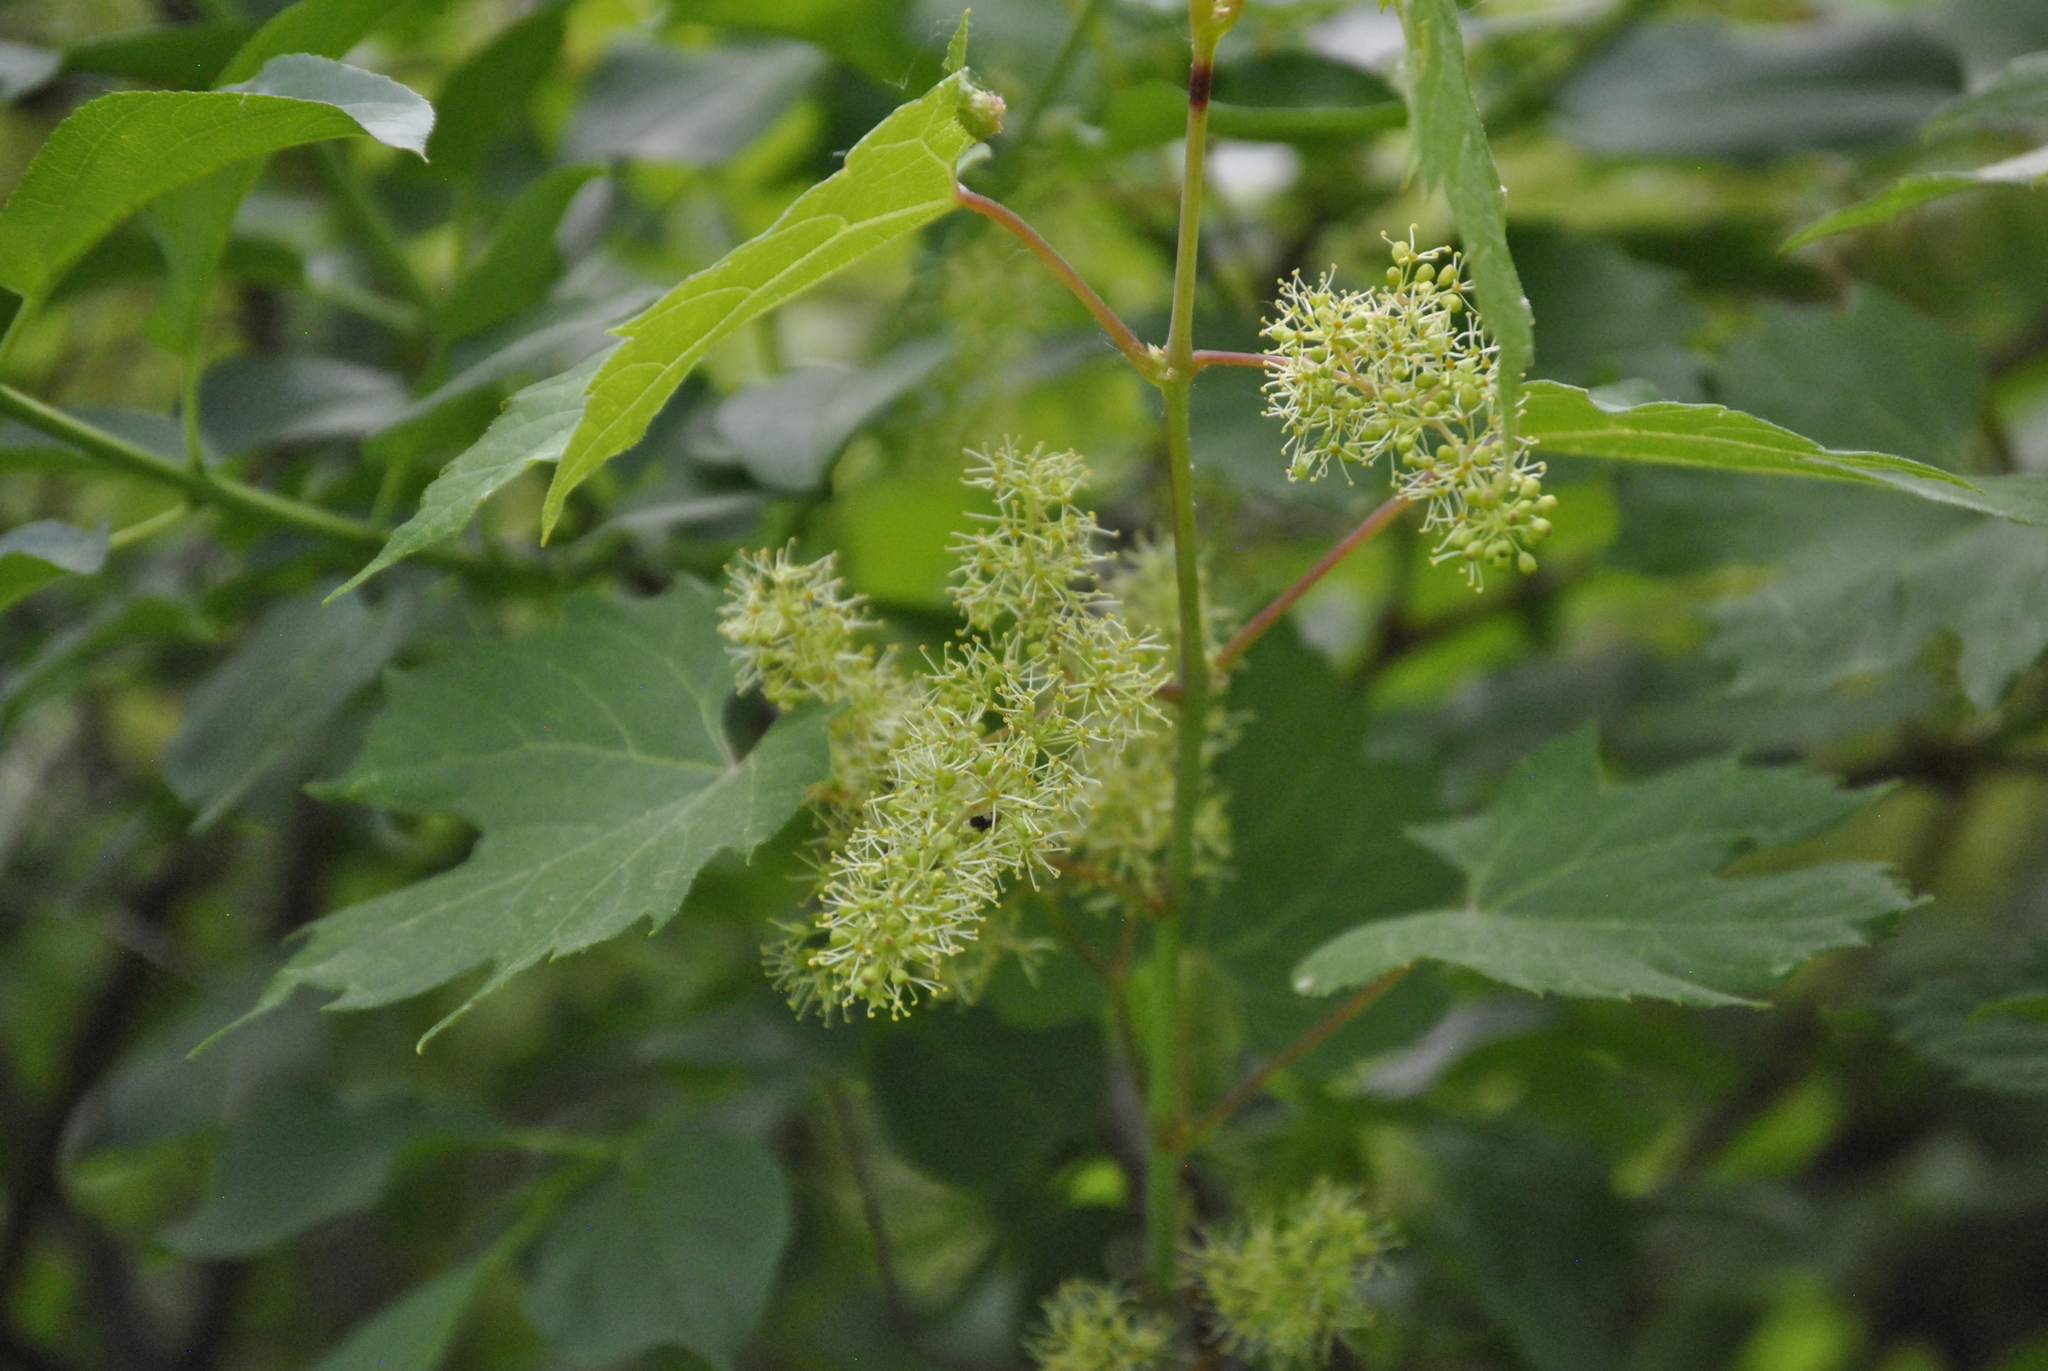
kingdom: Plantae
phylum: Tracheophyta
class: Magnoliopsida
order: Vitales
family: Vitaceae
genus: Vitis
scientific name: Vitis riparia
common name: Frost grape
